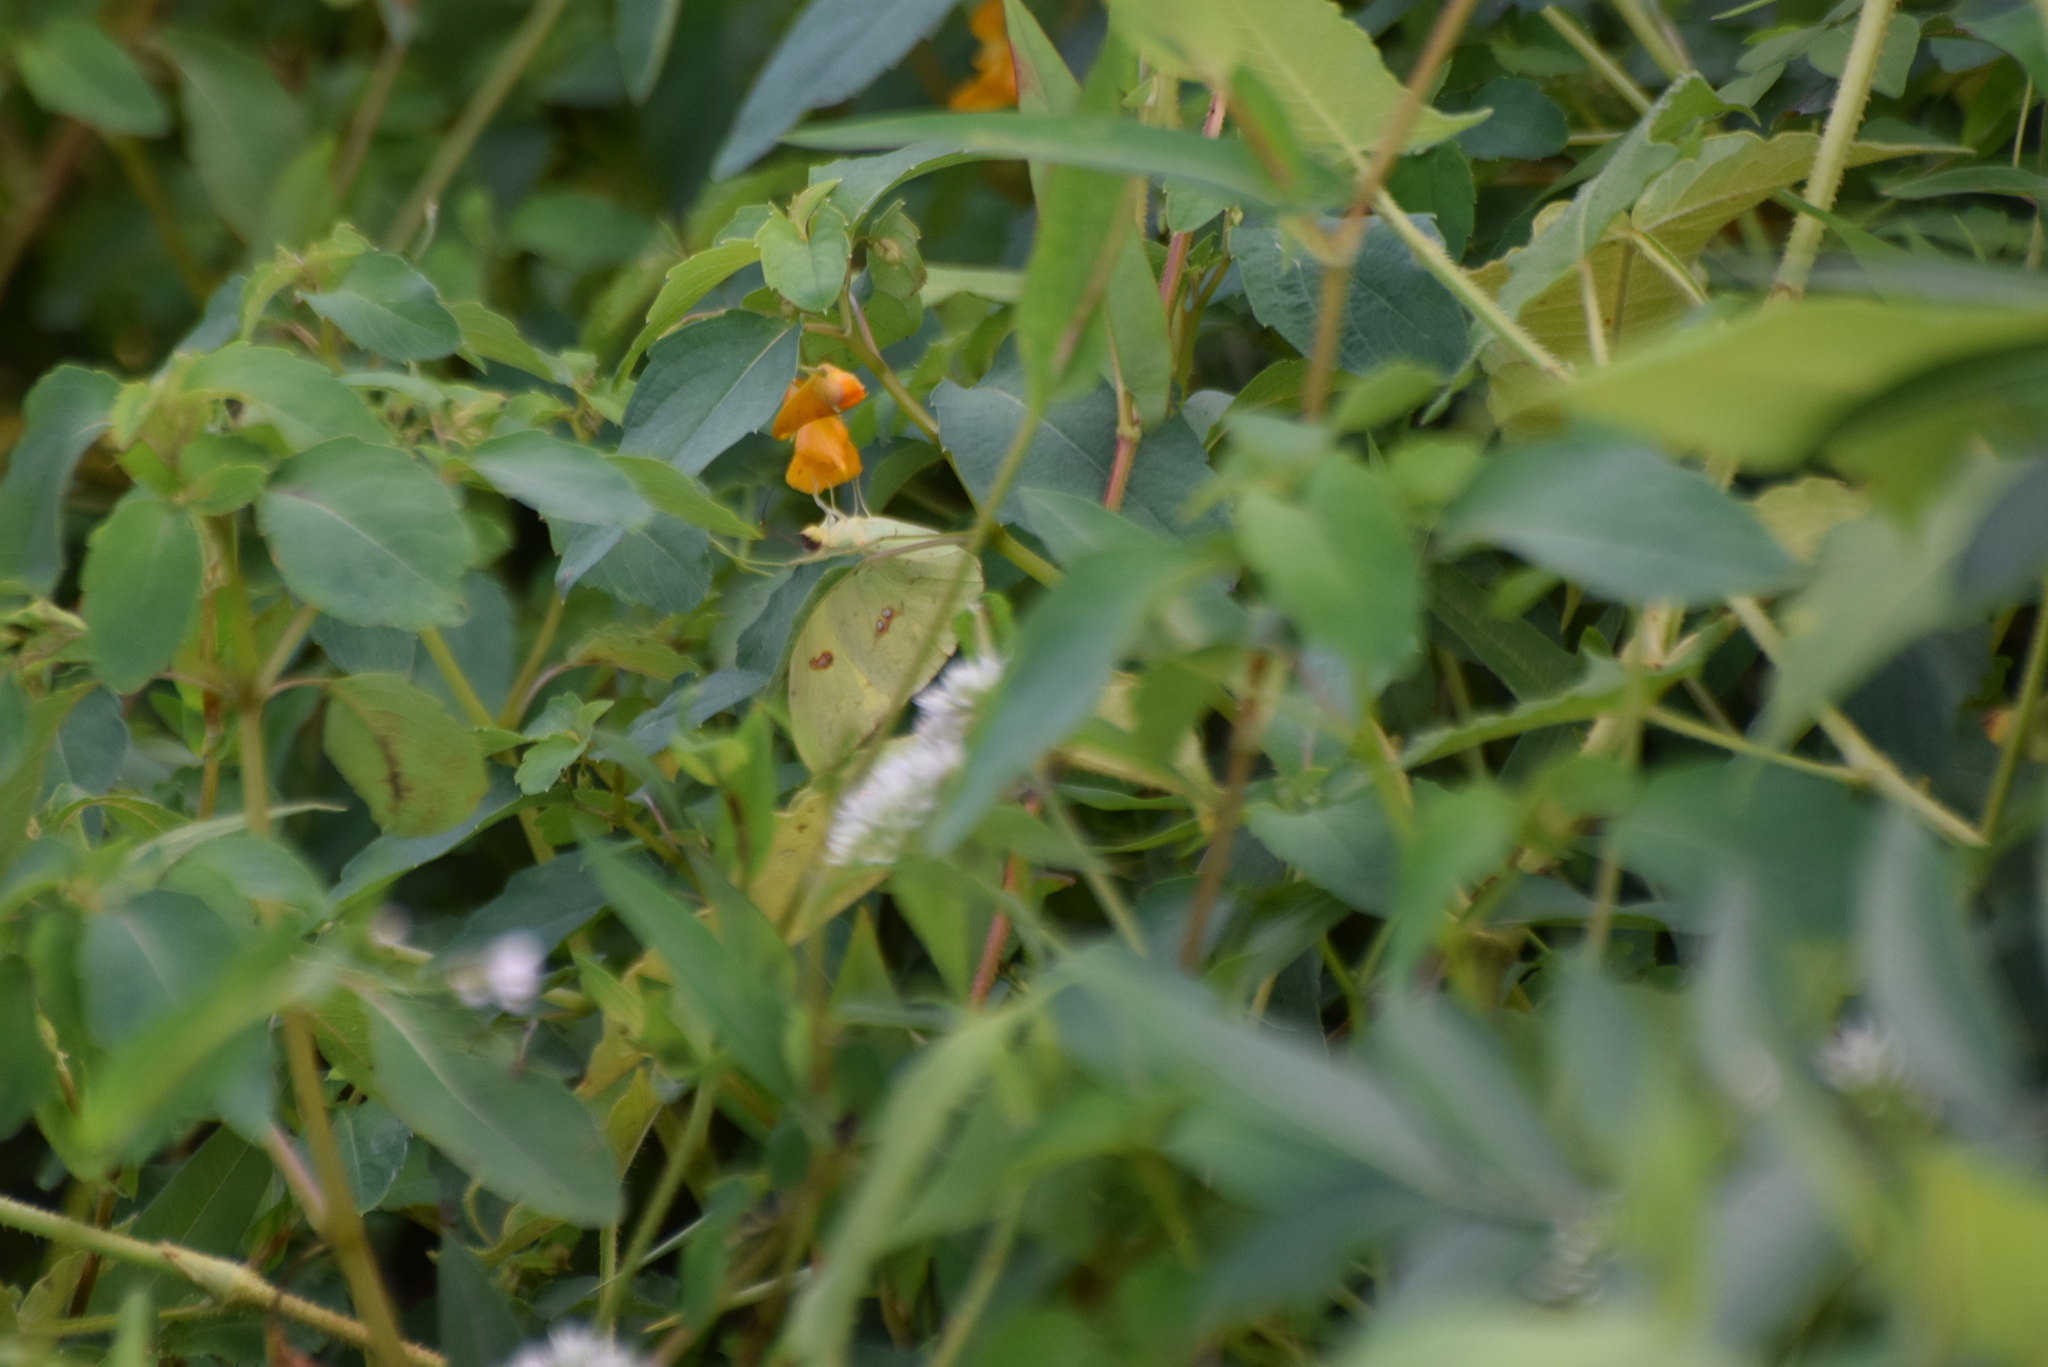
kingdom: Animalia
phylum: Arthropoda
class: Insecta
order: Lepidoptera
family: Pieridae
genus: Phoebis
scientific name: Phoebis sennae
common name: Cloudless sulphur
